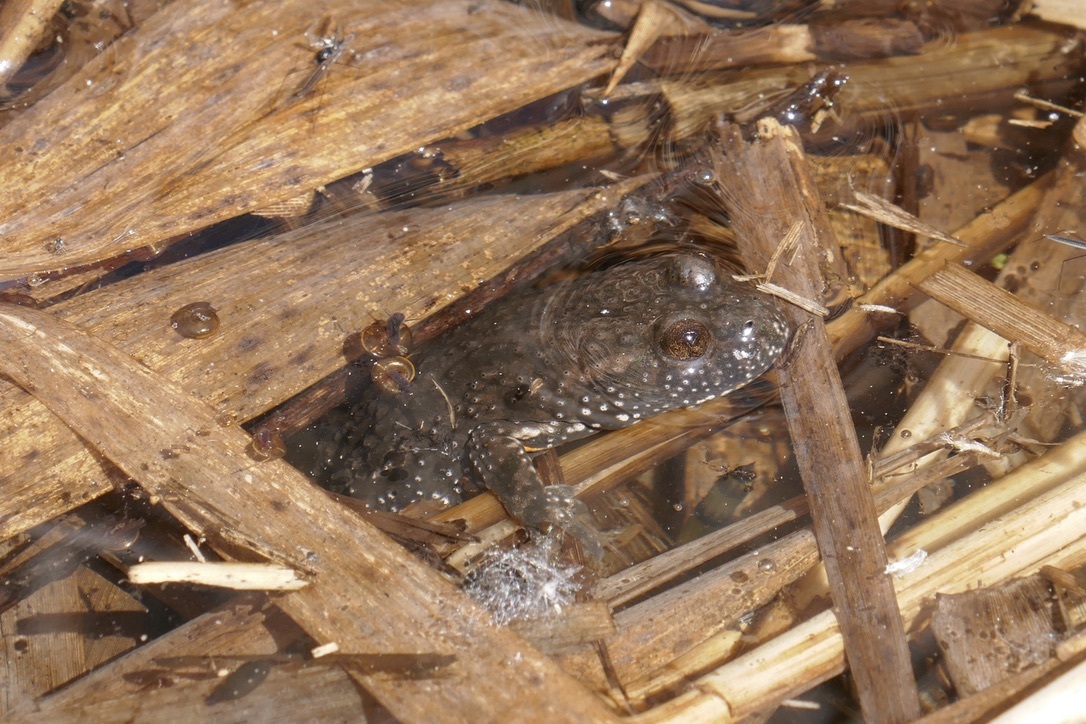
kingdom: Animalia
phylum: Chordata
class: Amphibia
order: Anura
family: Bombinatoridae
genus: Bombina
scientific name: Bombina bombina
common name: Fire-bellied toad
